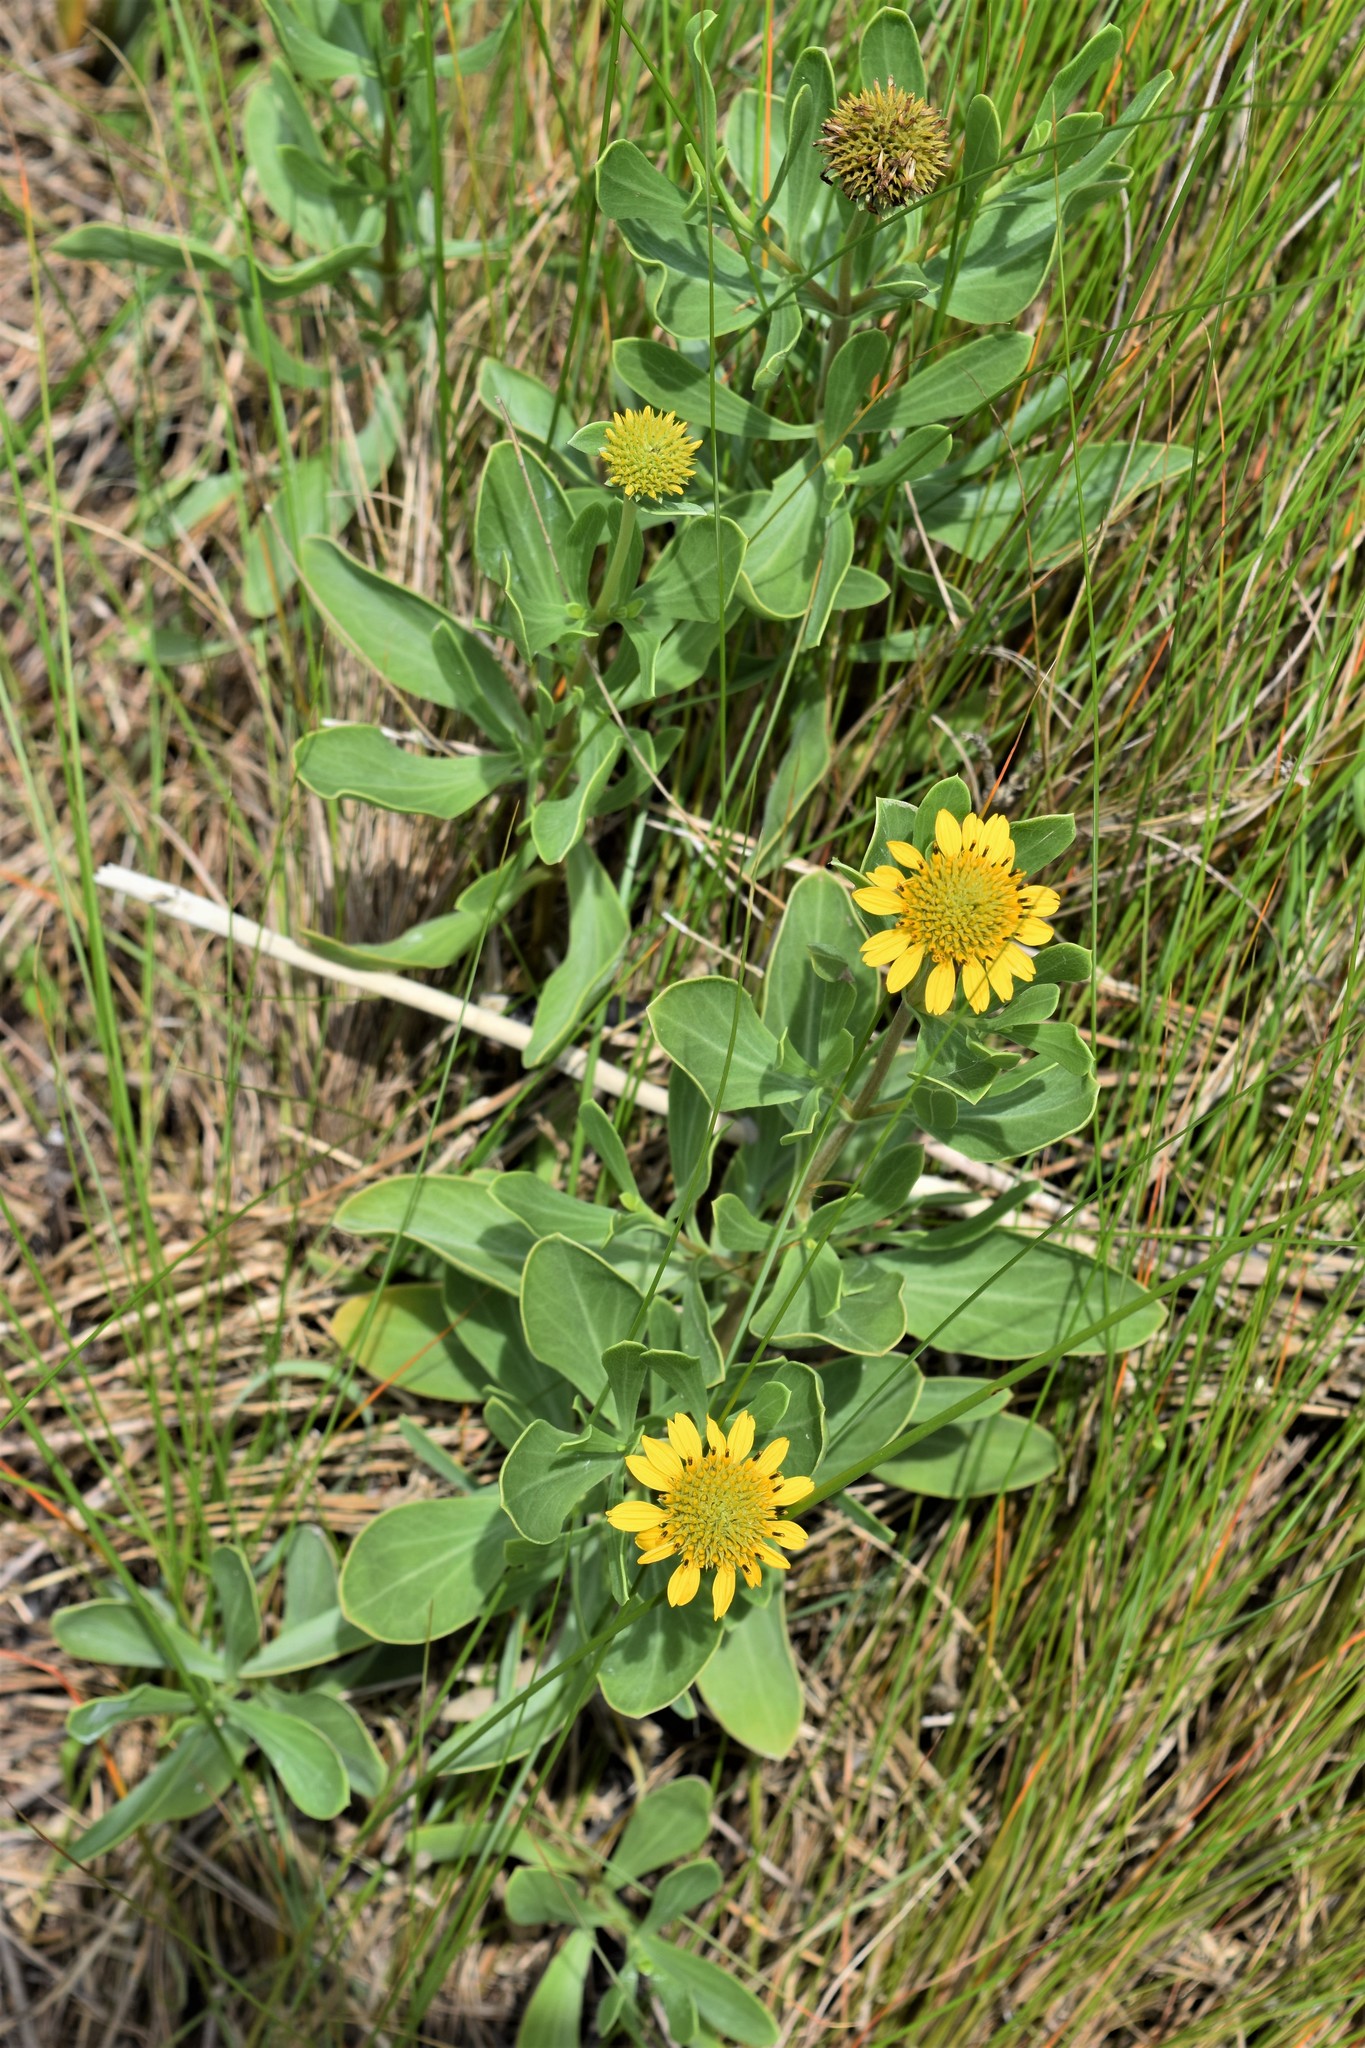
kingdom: Plantae
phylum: Tracheophyta
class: Magnoliopsida
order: Asterales
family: Asteraceae
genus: Borrichia
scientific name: Borrichia frutescens
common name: Sea oxeye
